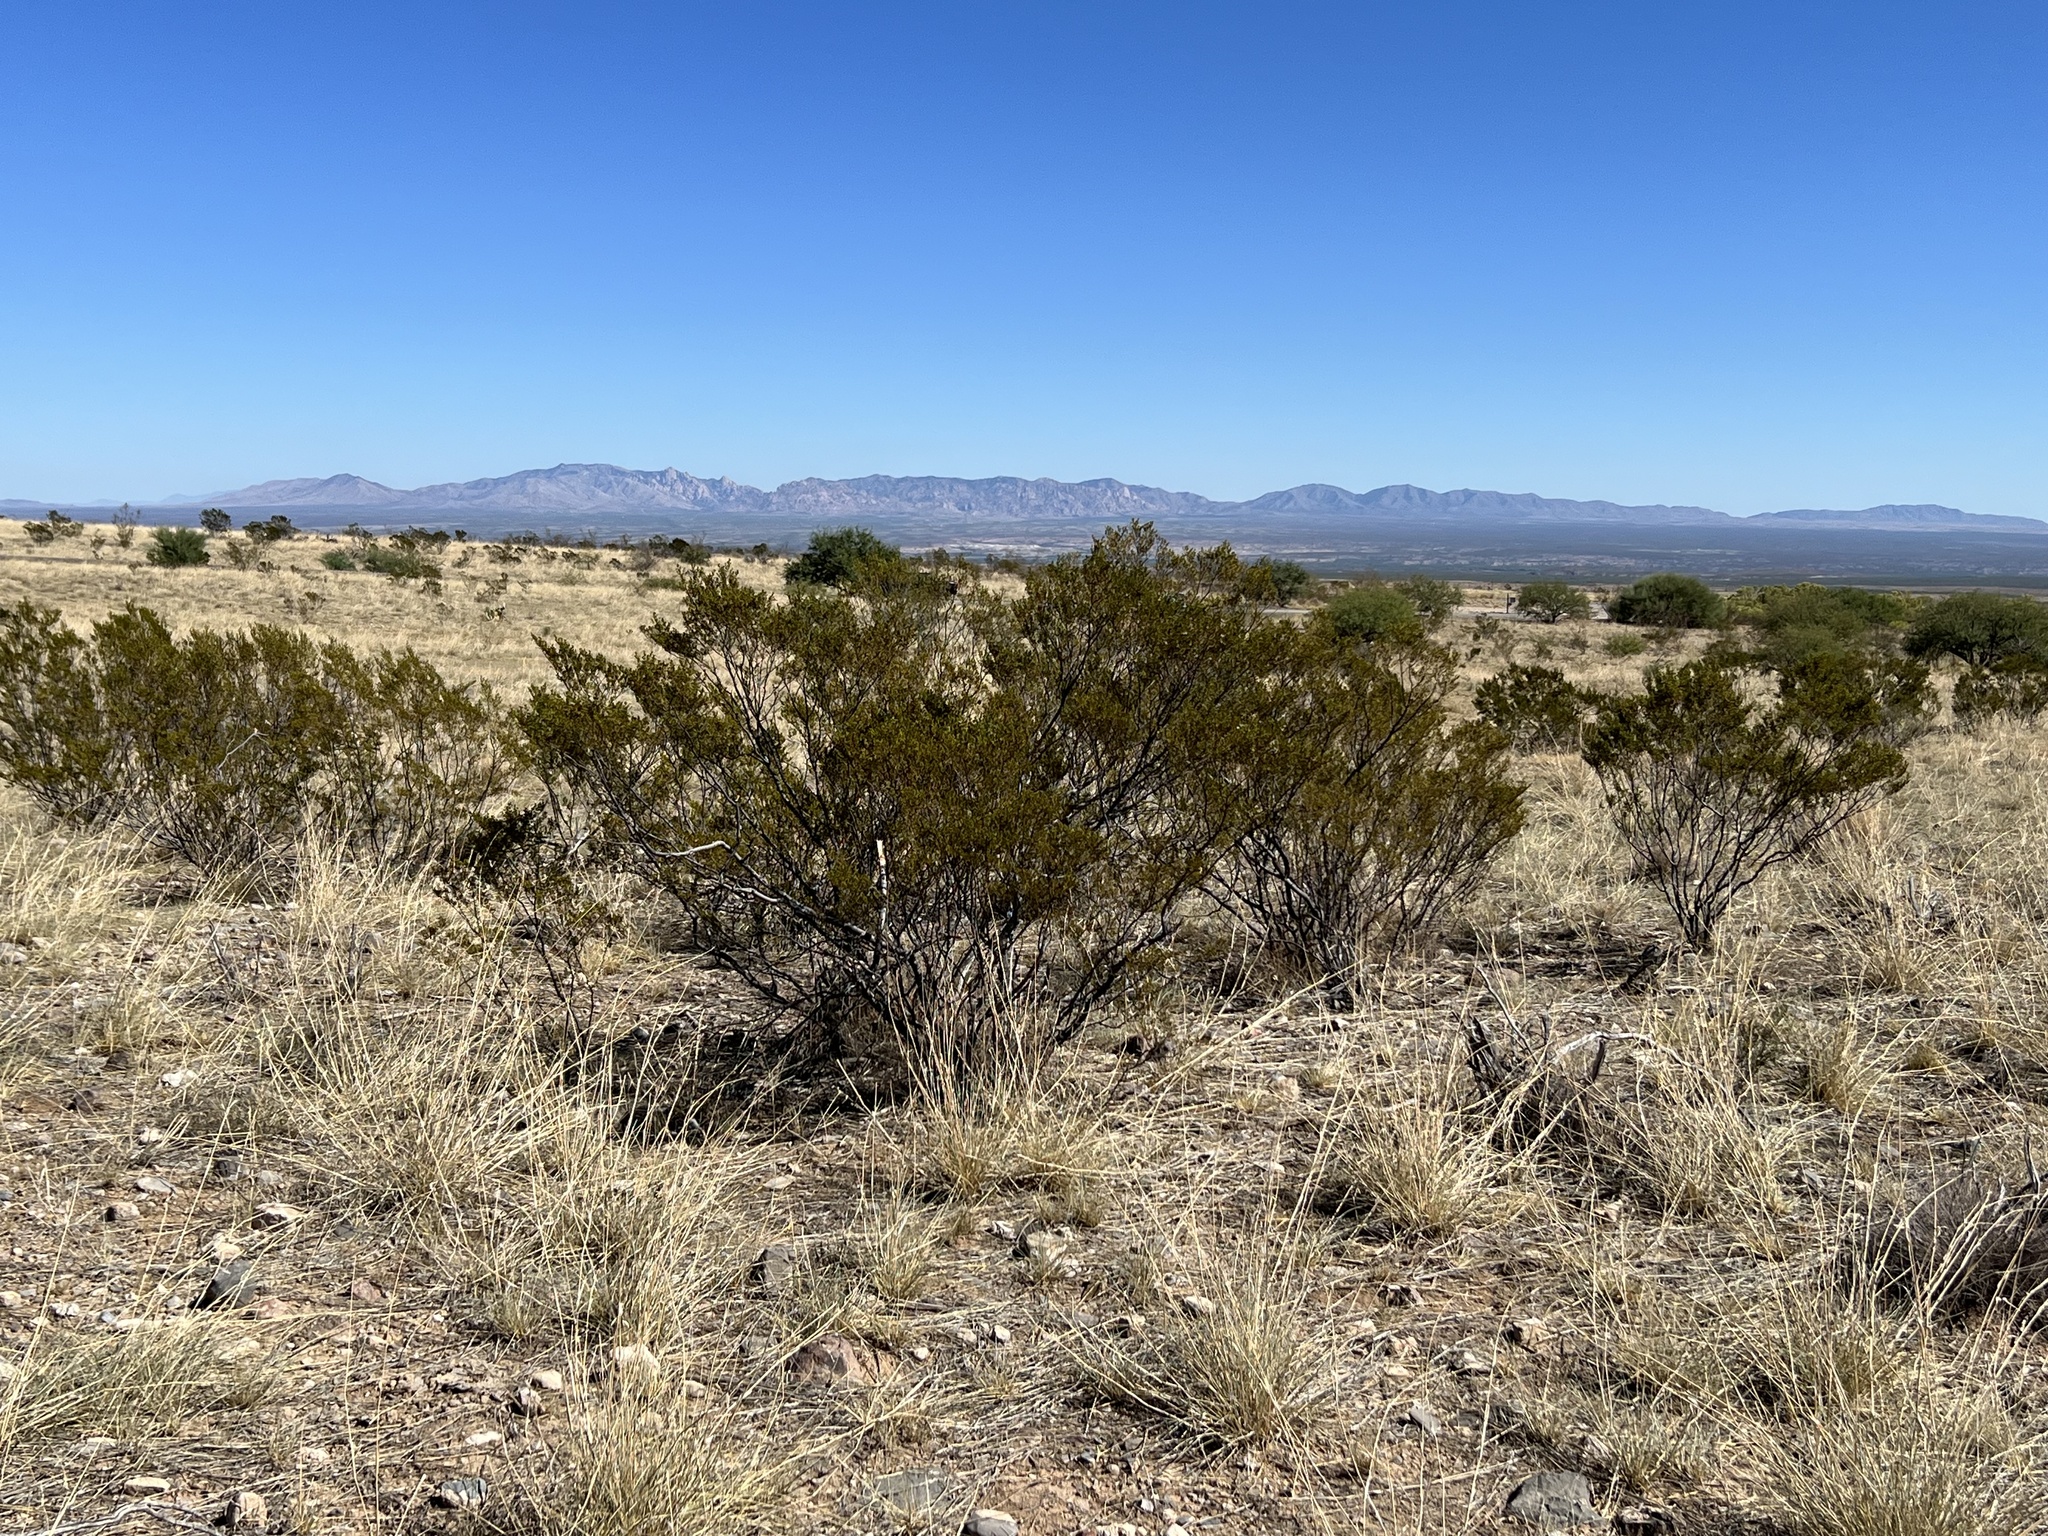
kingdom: Plantae
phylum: Tracheophyta
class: Magnoliopsida
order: Zygophyllales
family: Zygophyllaceae
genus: Larrea
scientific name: Larrea tridentata
